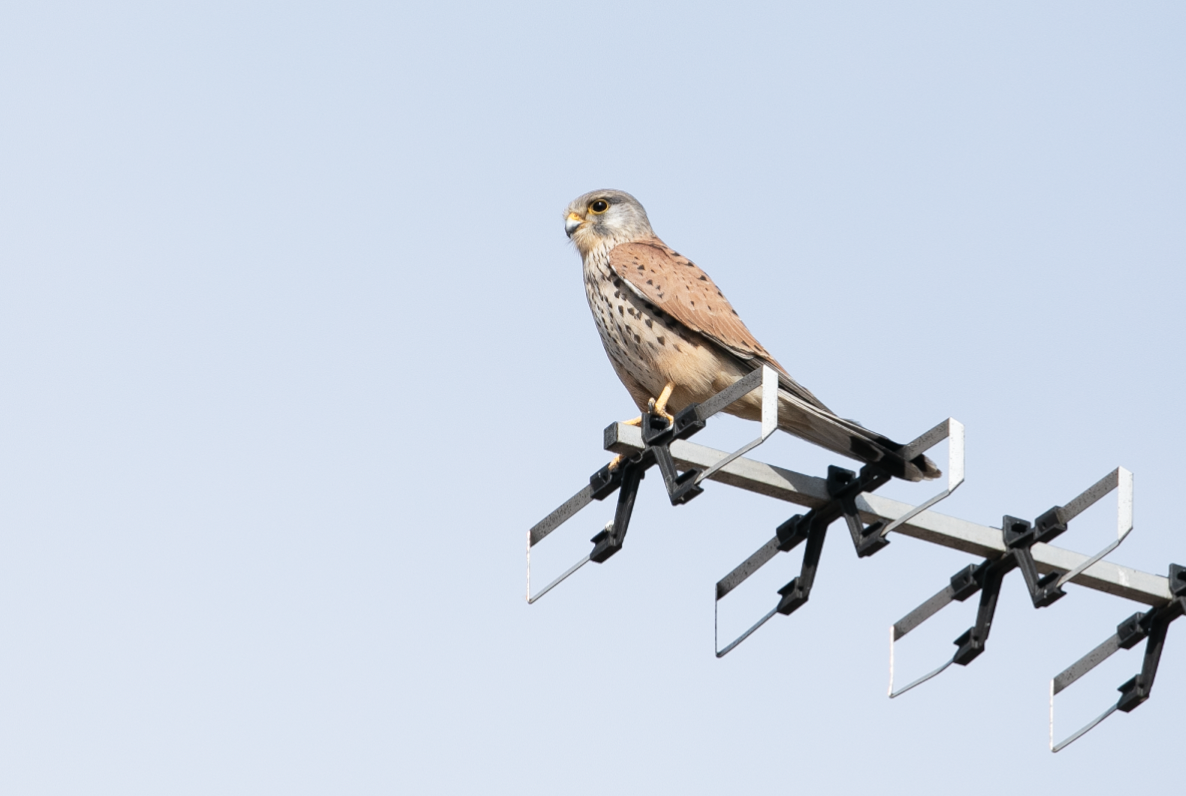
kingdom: Animalia
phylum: Chordata
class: Aves
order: Falconiformes
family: Falconidae
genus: Falco
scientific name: Falco tinnunculus
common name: Common kestrel
